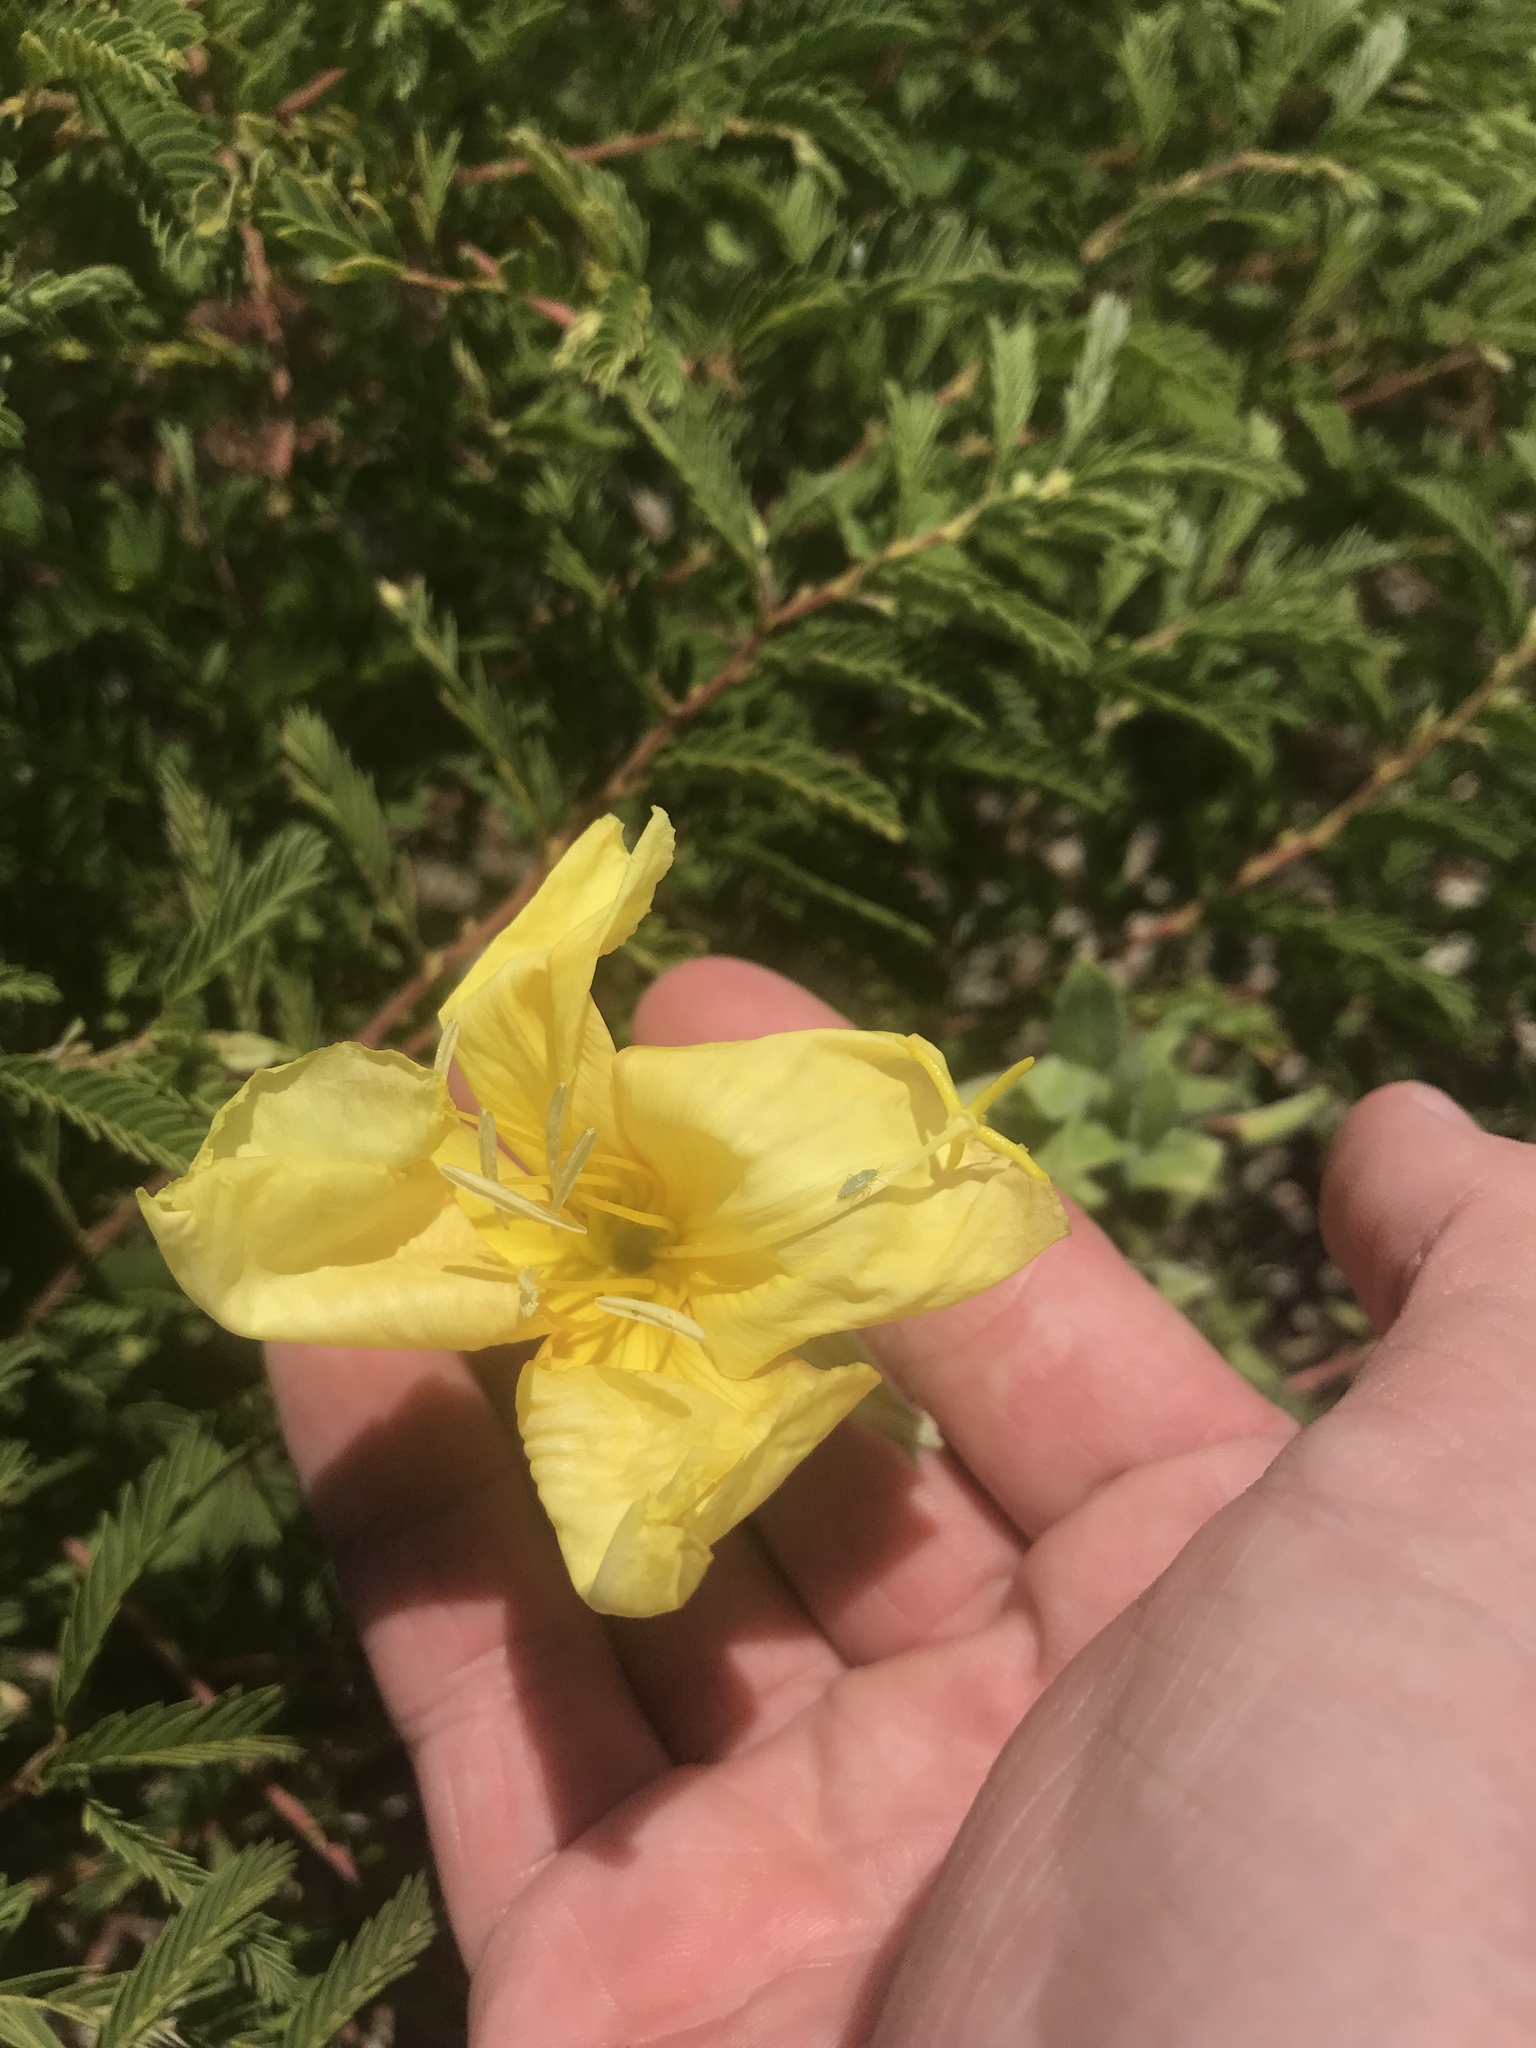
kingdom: Plantae
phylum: Tracheophyta
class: Magnoliopsida
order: Myrtales
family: Onagraceae
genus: Oenothera
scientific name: Oenothera drummondii
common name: Beach evening-primrose
